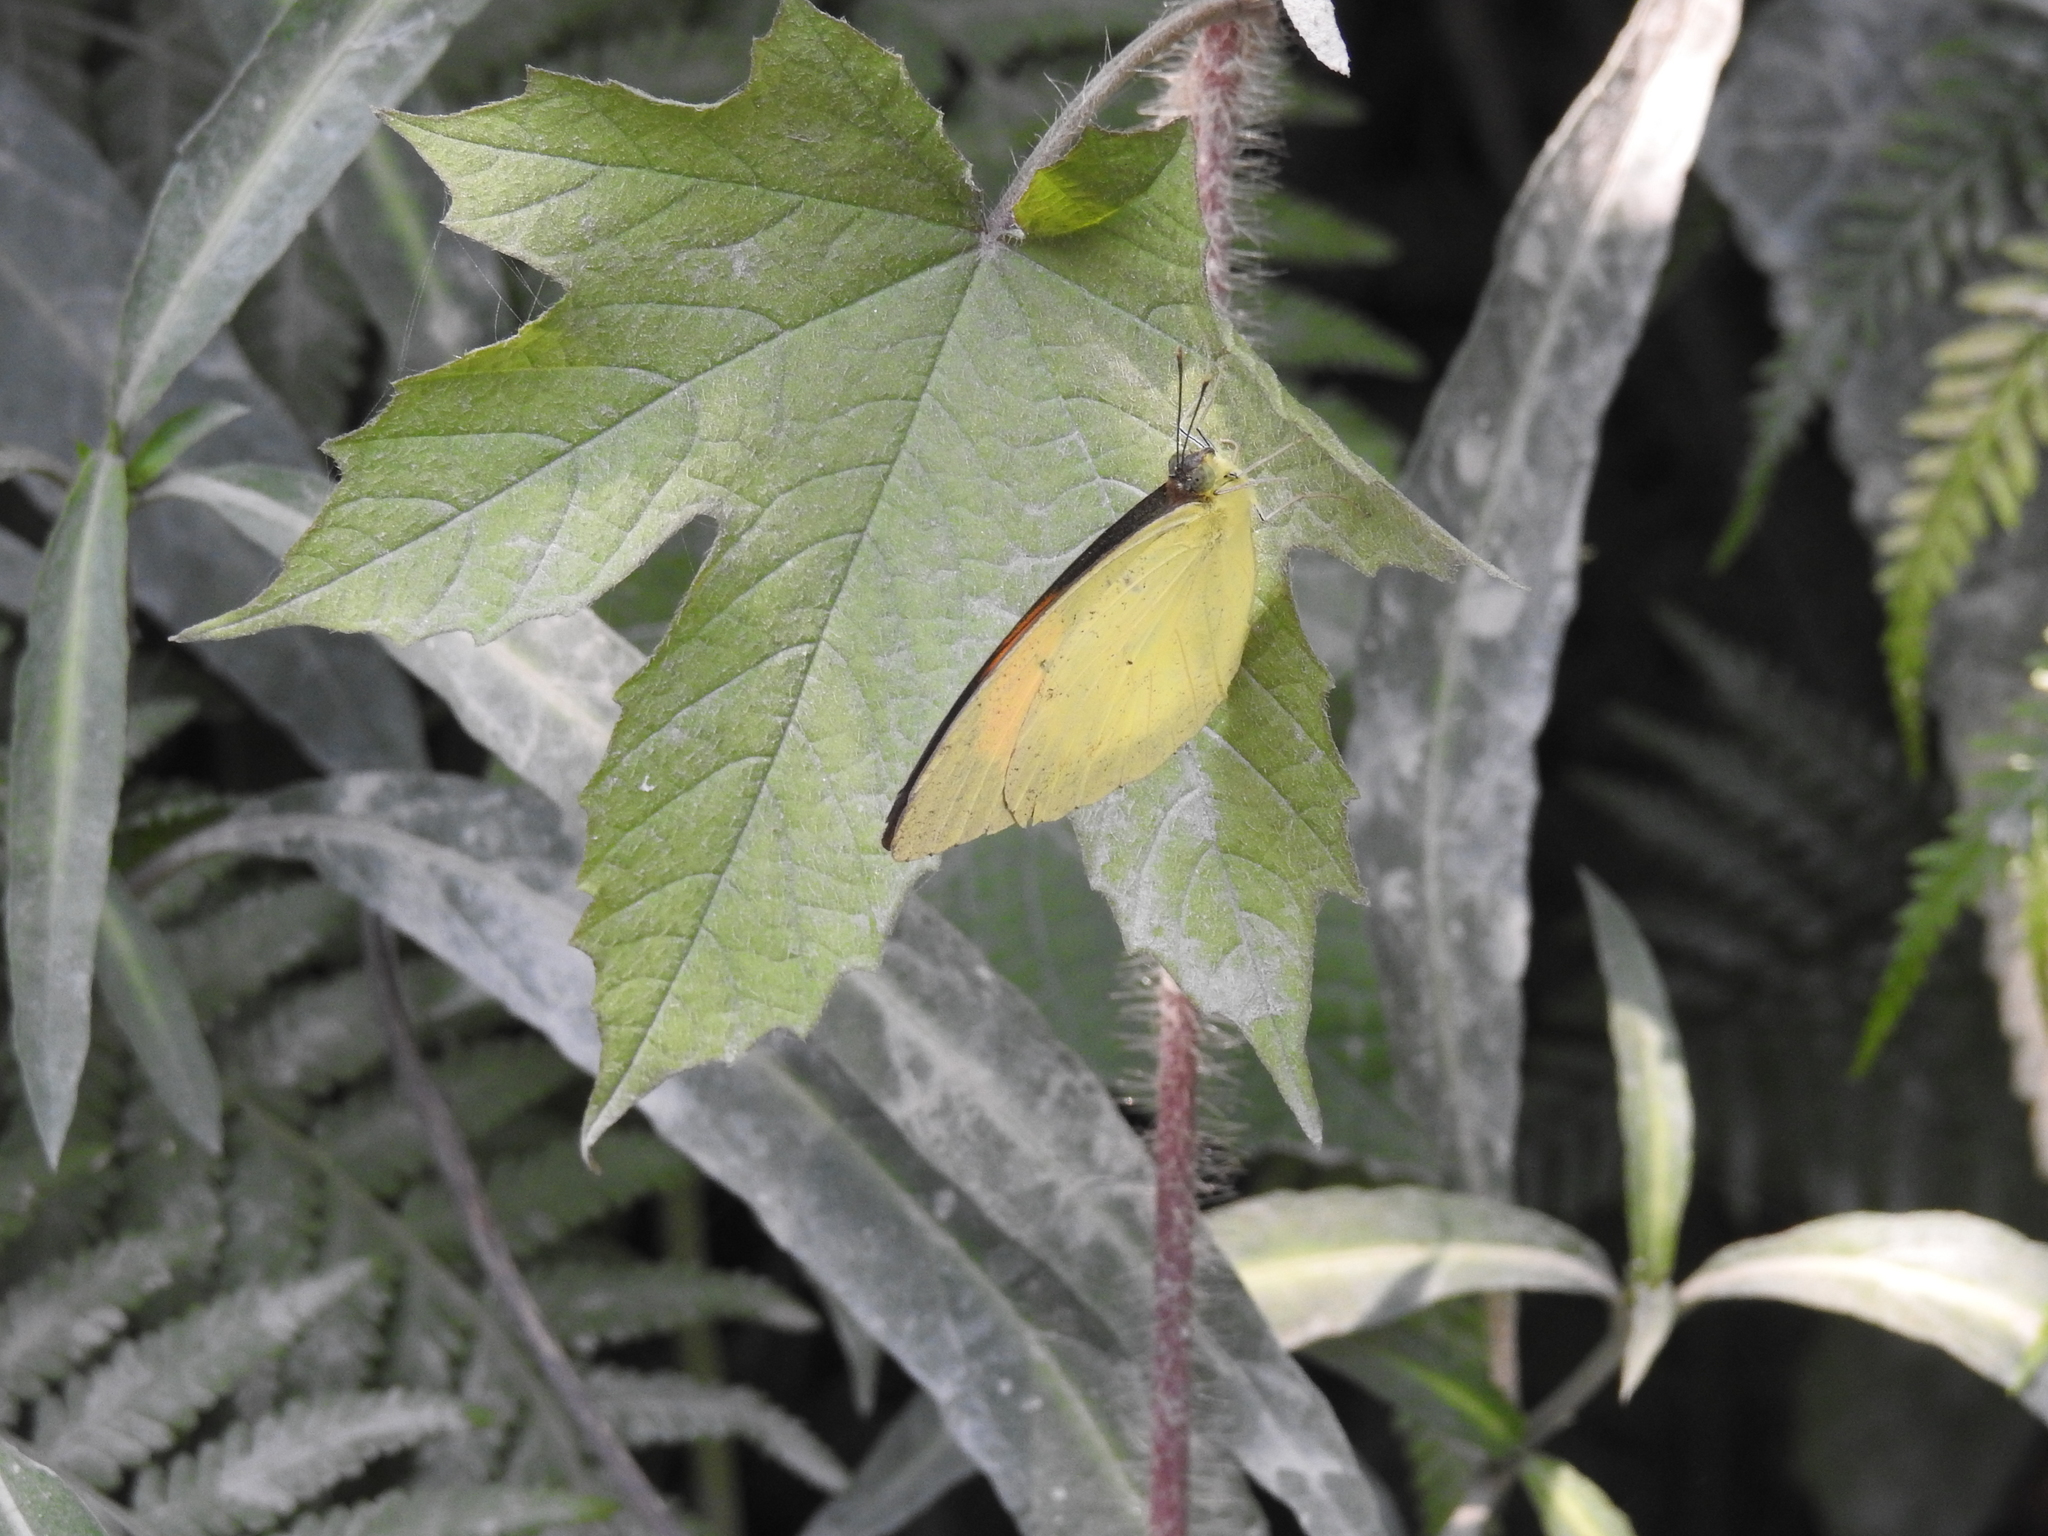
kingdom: Animalia
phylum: Arthropoda
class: Insecta
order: Lepidoptera
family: Pieridae
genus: Ixias
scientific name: Ixias pyrene
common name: Yellow orange tip
